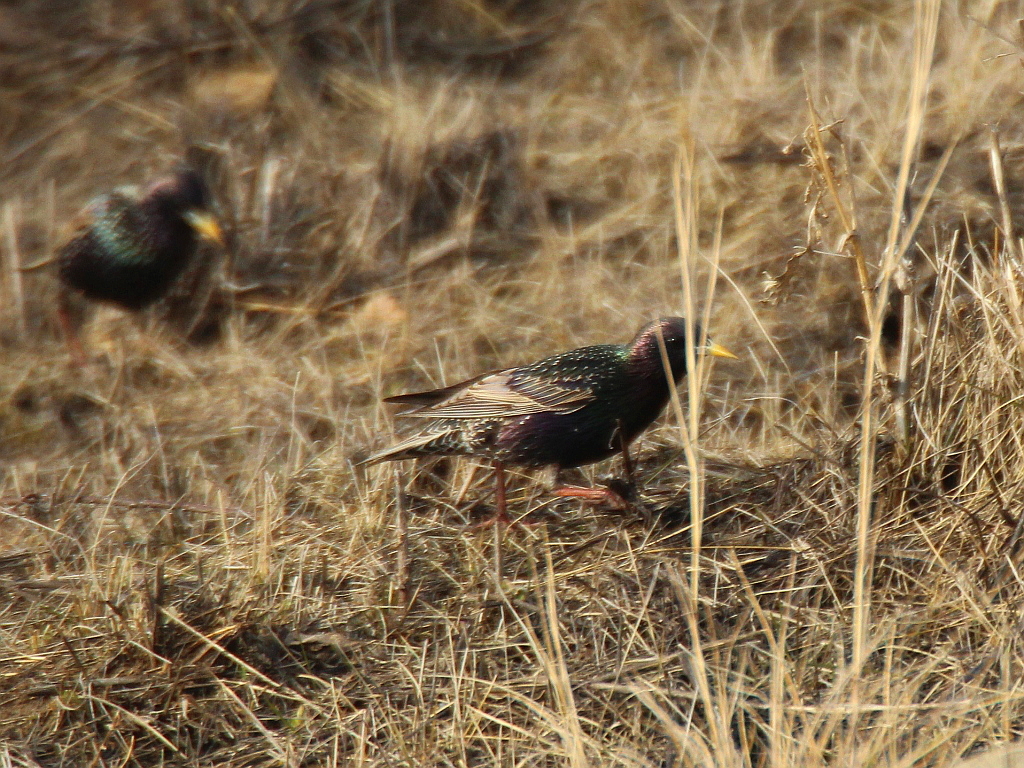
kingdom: Animalia
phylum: Chordata
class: Aves
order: Passeriformes
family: Sturnidae
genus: Sturnus
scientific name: Sturnus vulgaris
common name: Common starling
